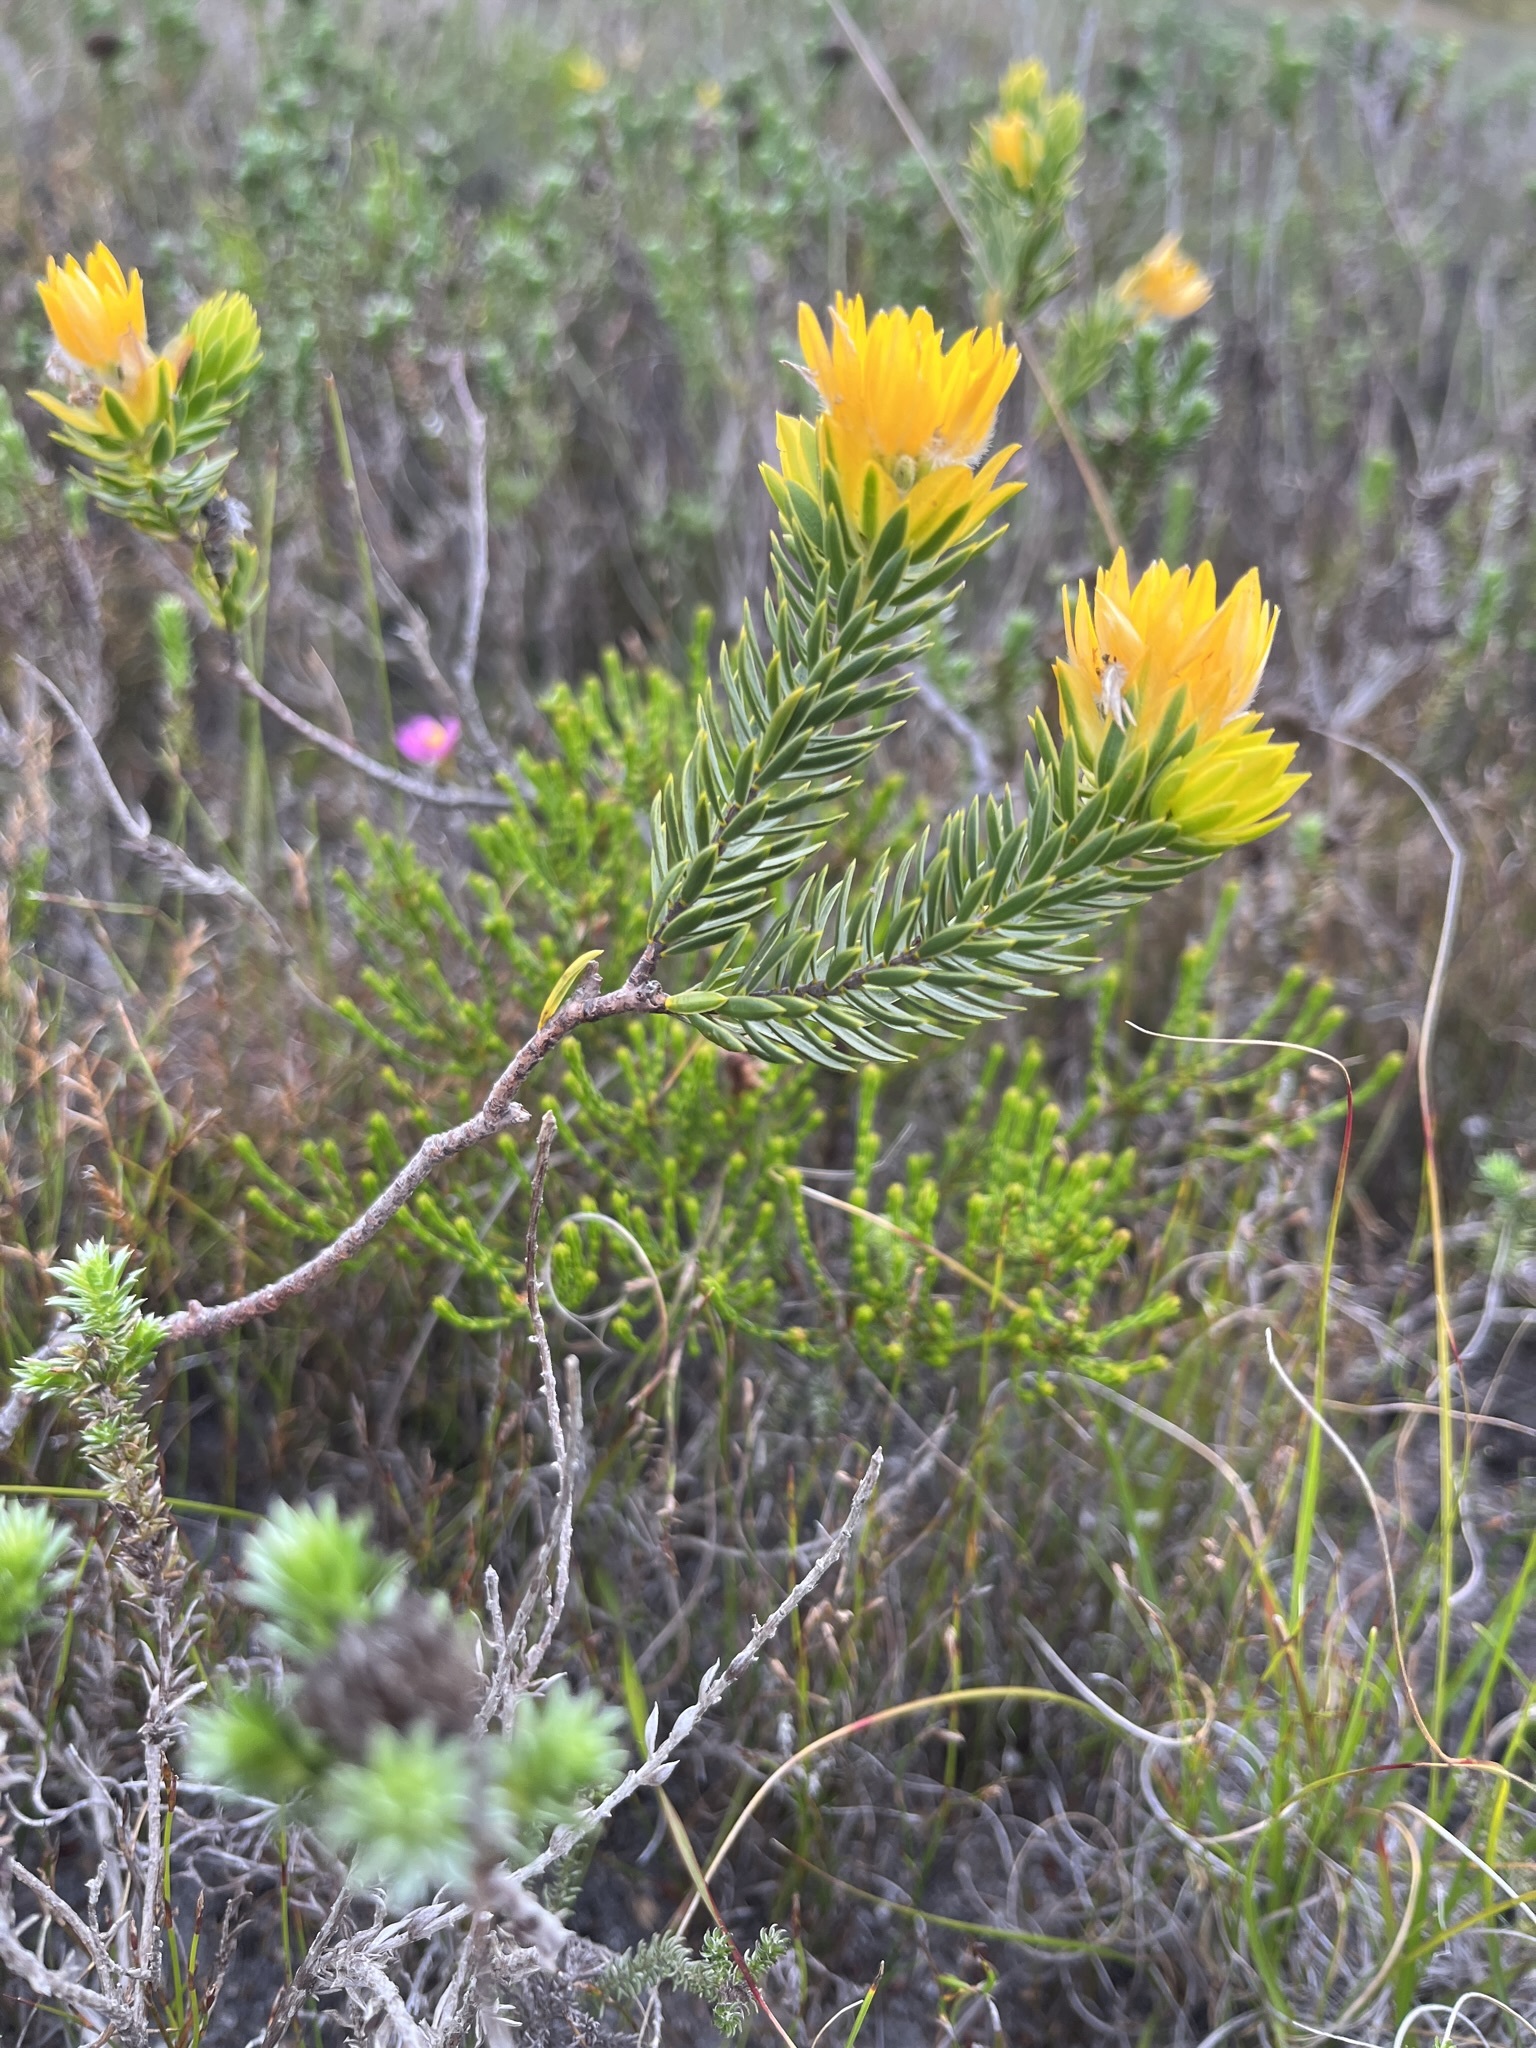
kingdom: Plantae
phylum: Tracheophyta
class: Magnoliopsida
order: Malvales
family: Thymelaeaceae
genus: Lachnaea
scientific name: Lachnaea aurea
